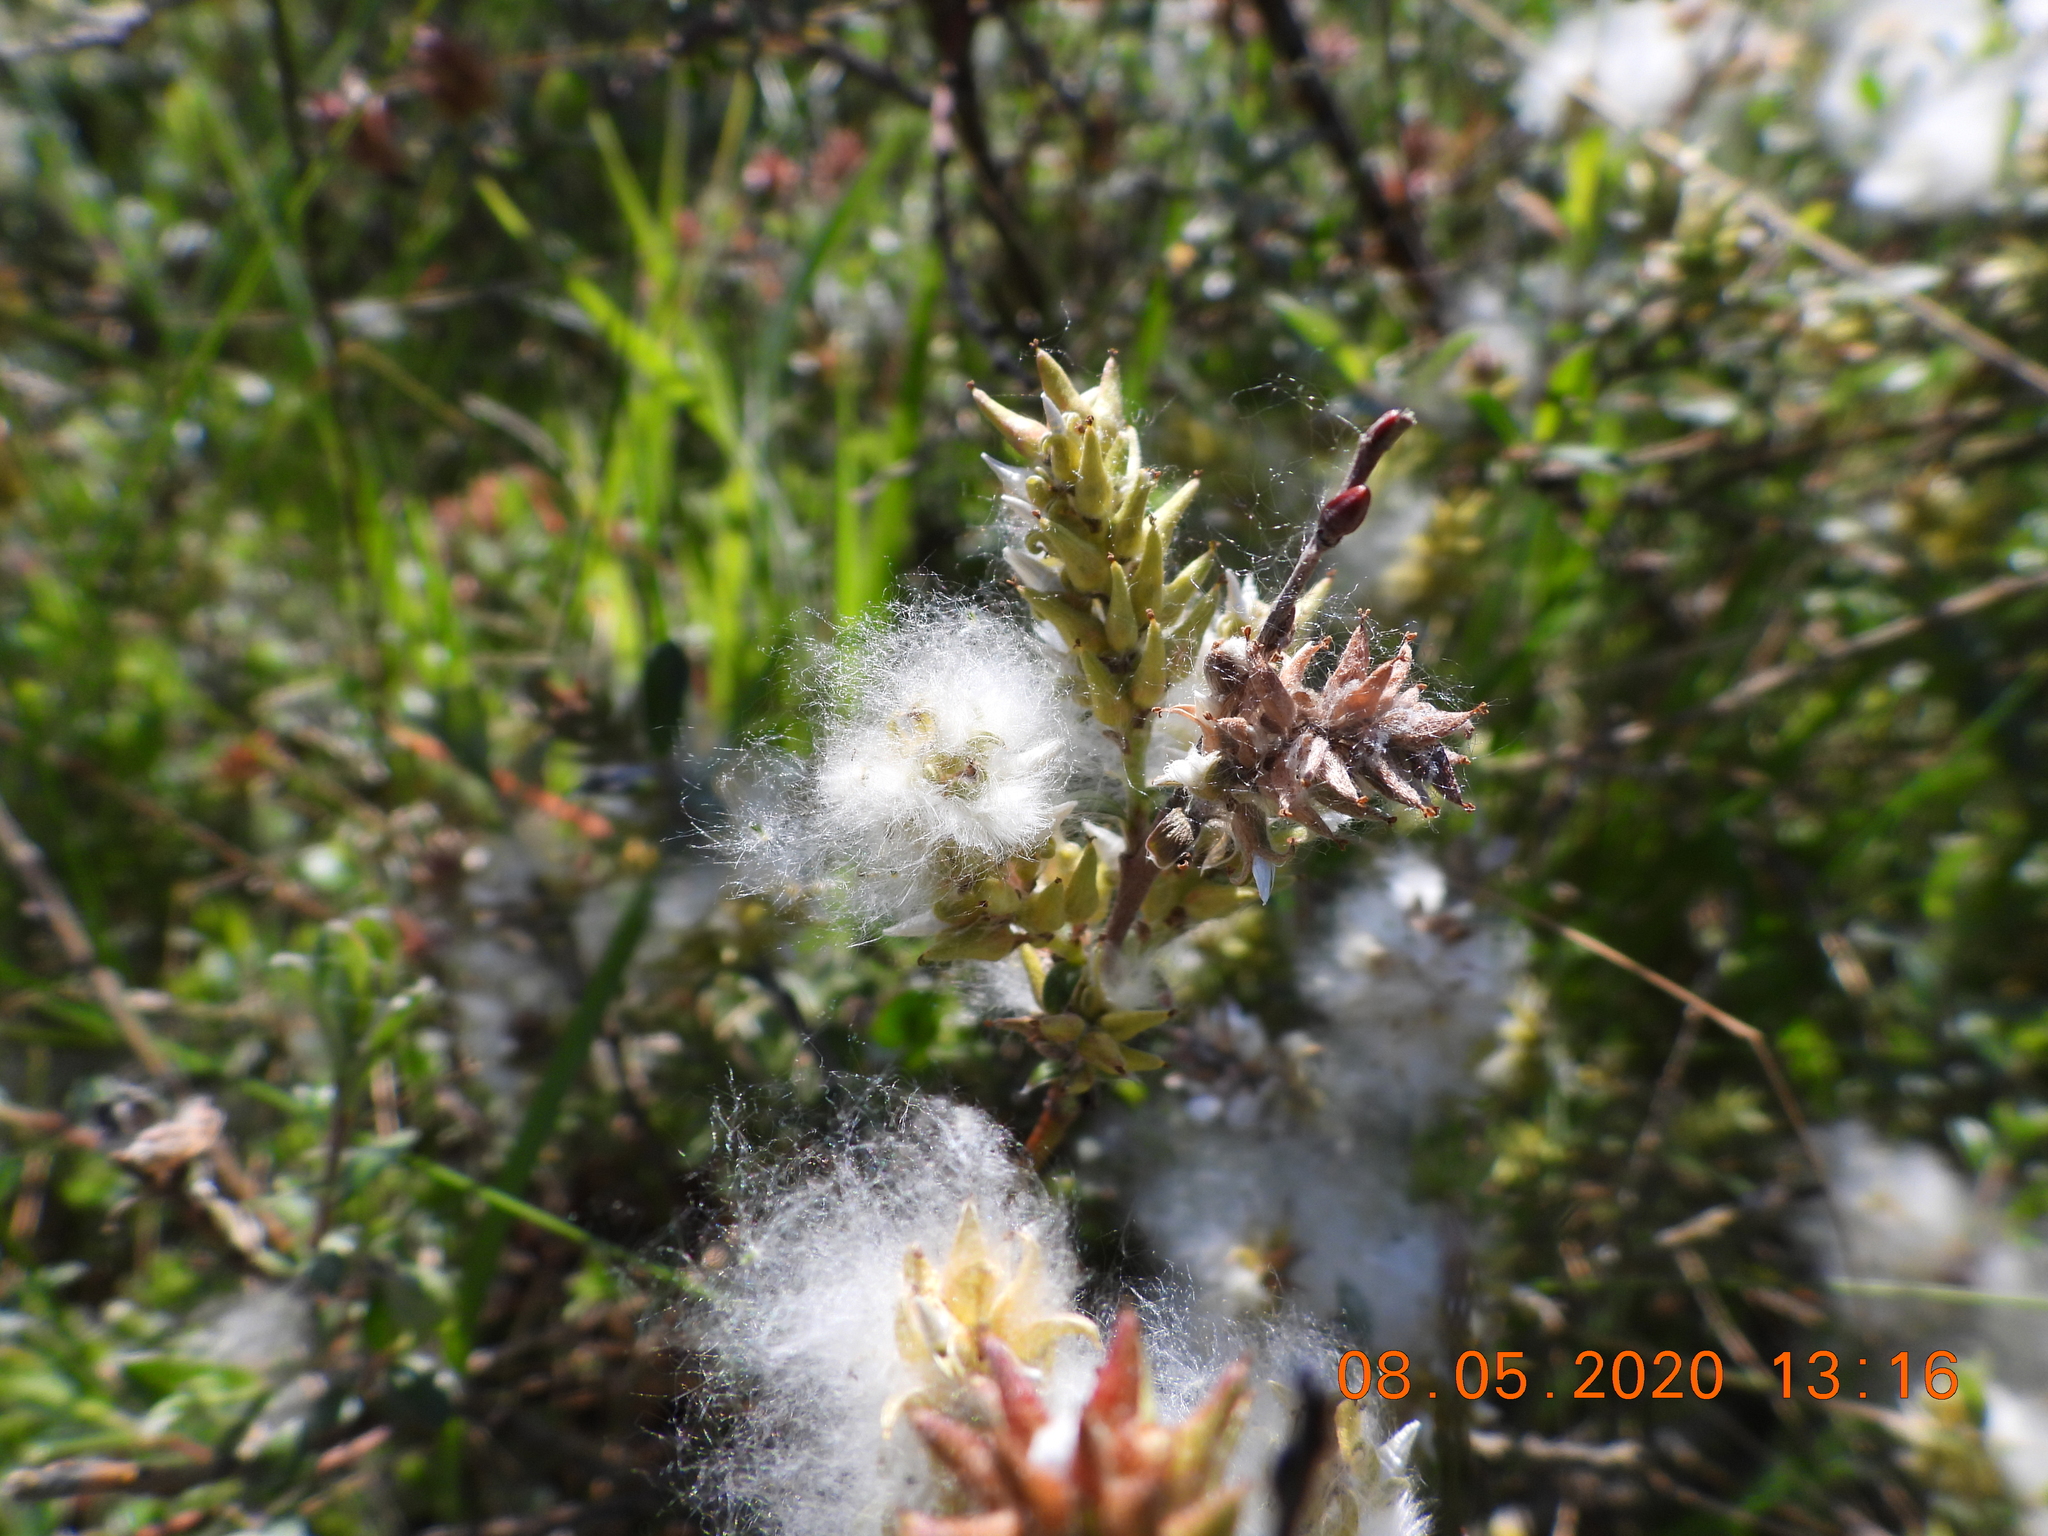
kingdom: Plantae
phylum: Tracheophyta
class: Magnoliopsida
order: Malpighiales
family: Salicaceae
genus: Salix
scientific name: Salix repens
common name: Creeping willow
